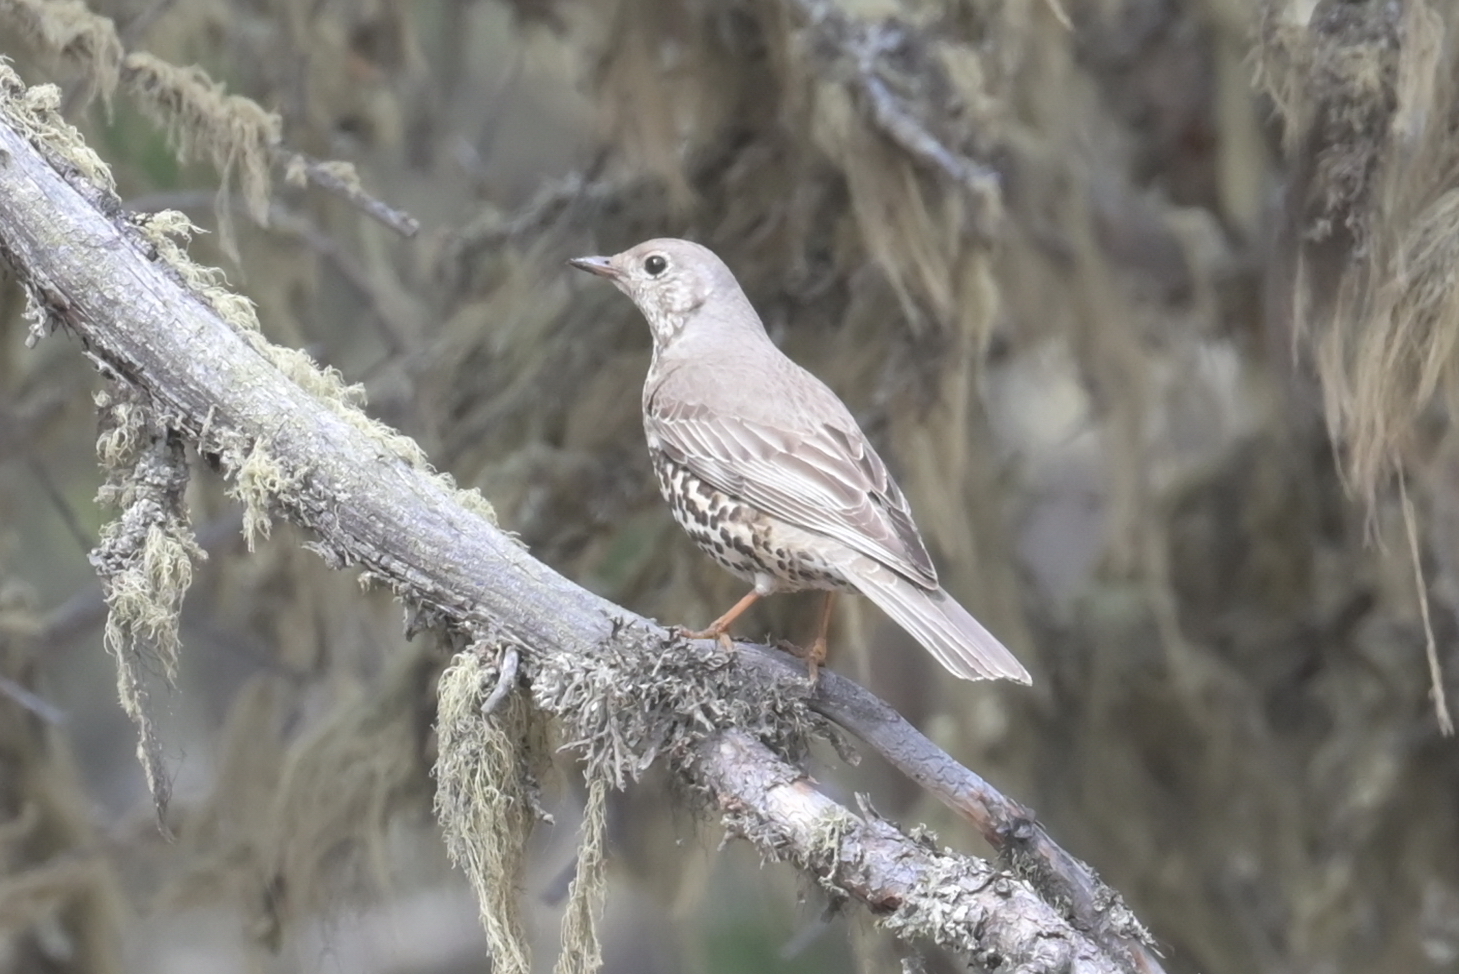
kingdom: Animalia
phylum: Chordata
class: Aves
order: Passeriformes
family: Turdidae
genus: Turdus
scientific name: Turdus viscivorus
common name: Mistle thrush
